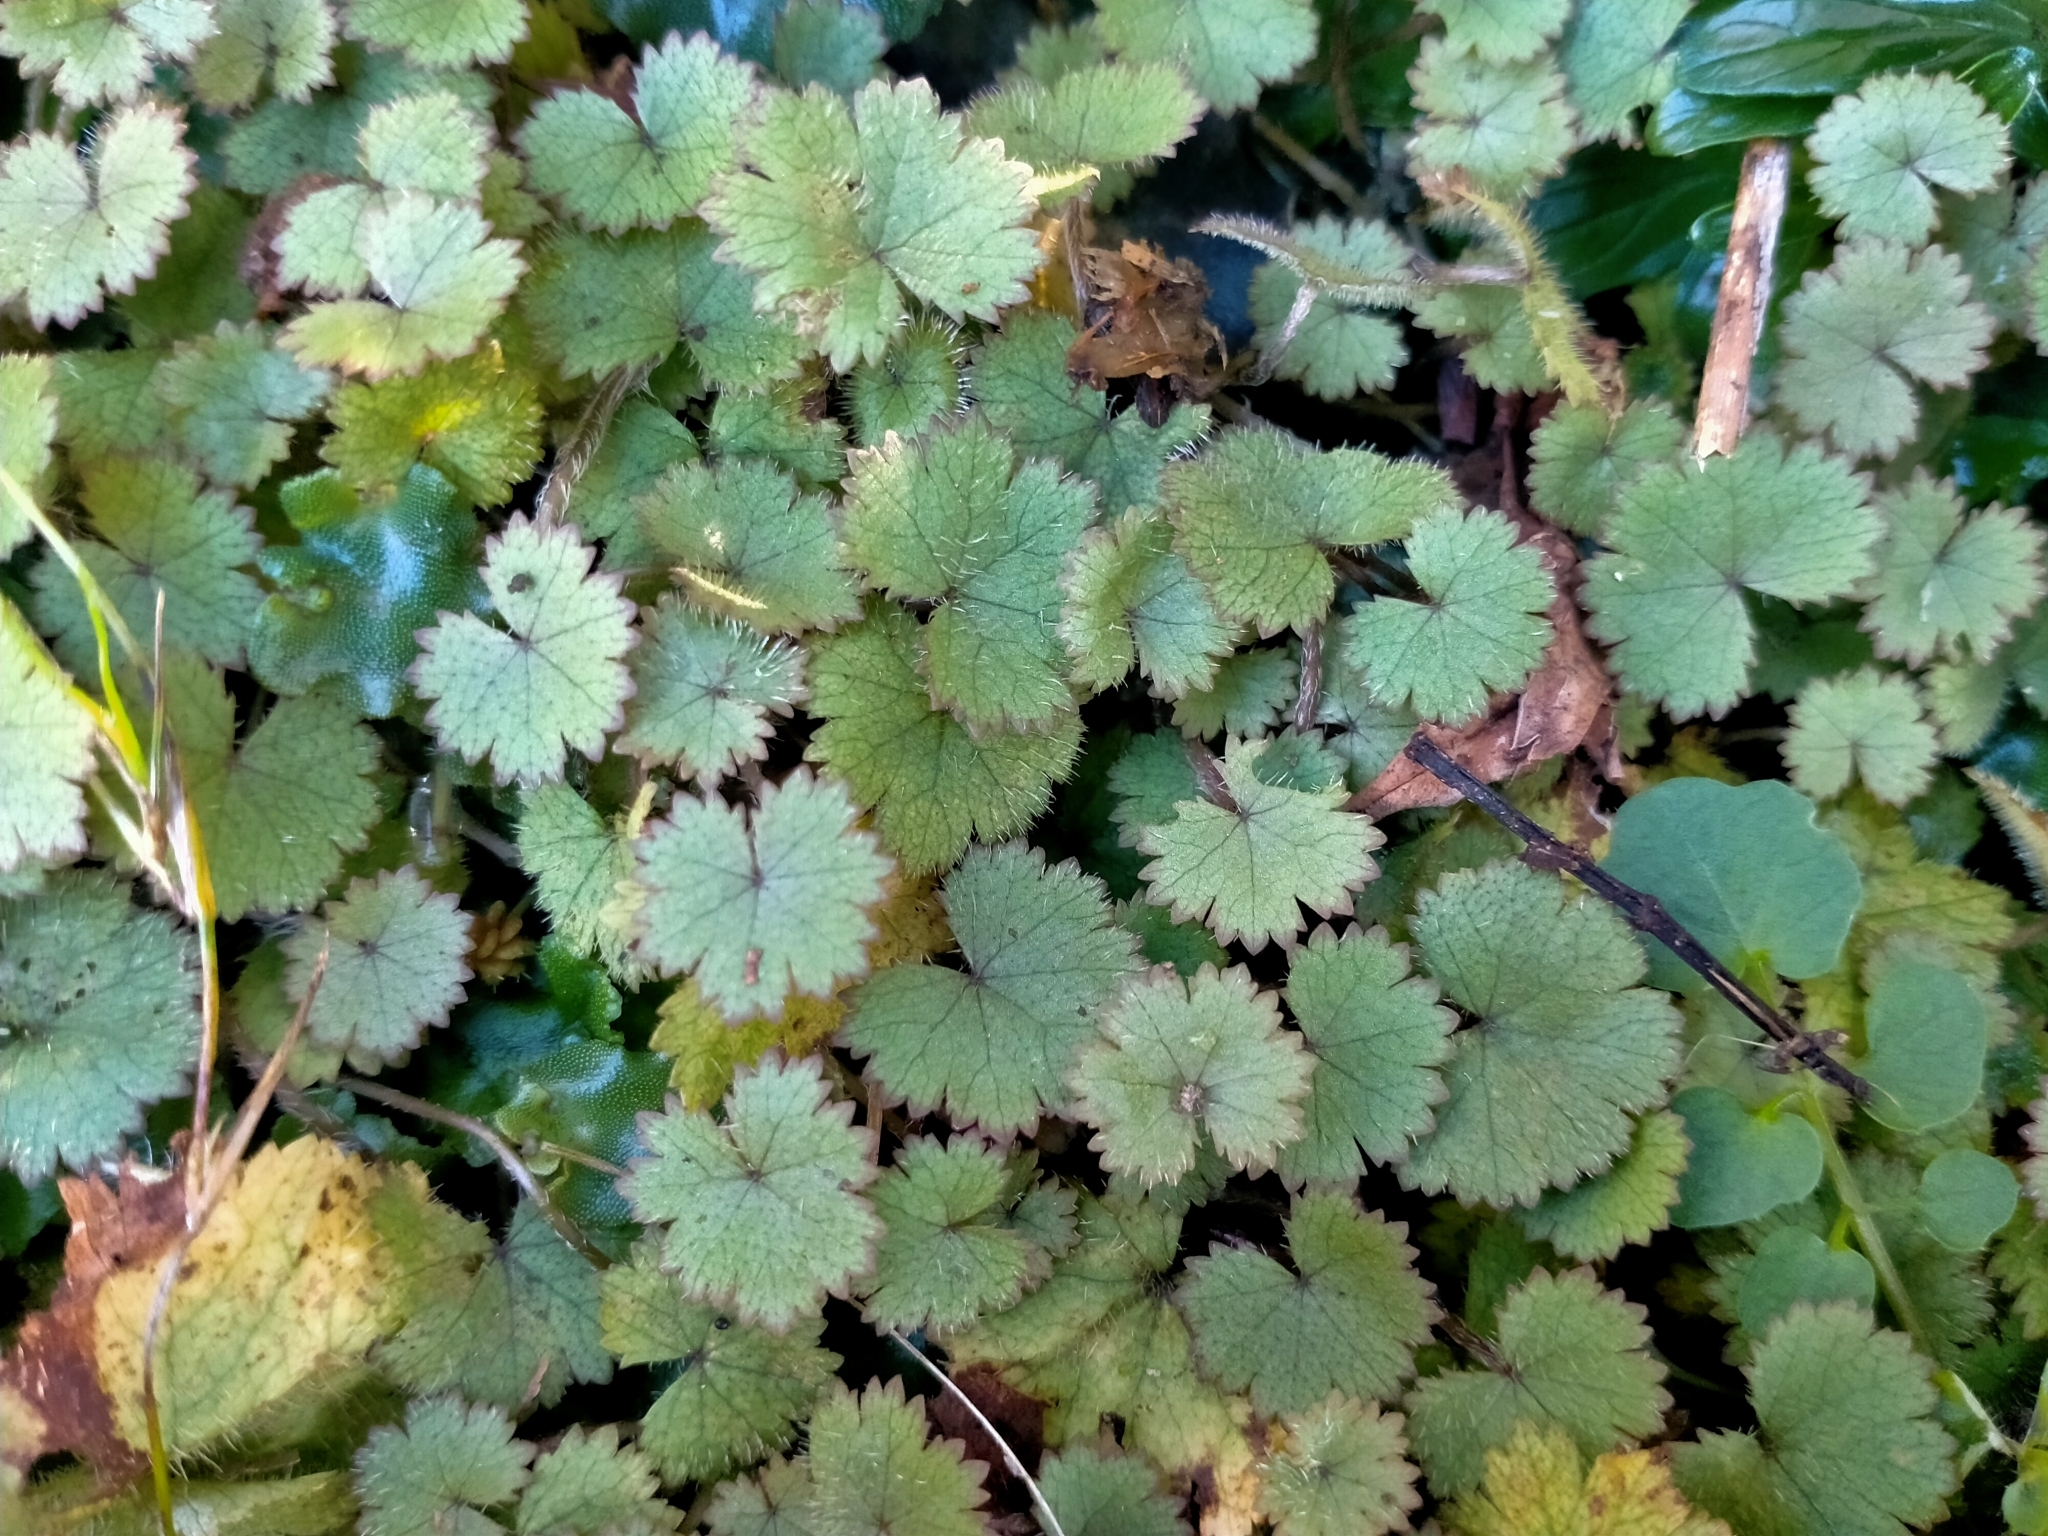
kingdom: Plantae
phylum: Tracheophyta
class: Magnoliopsida
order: Apiales
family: Araliaceae
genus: Hydrocotyle
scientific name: Hydrocotyle moschata
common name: Hairy pennywort
